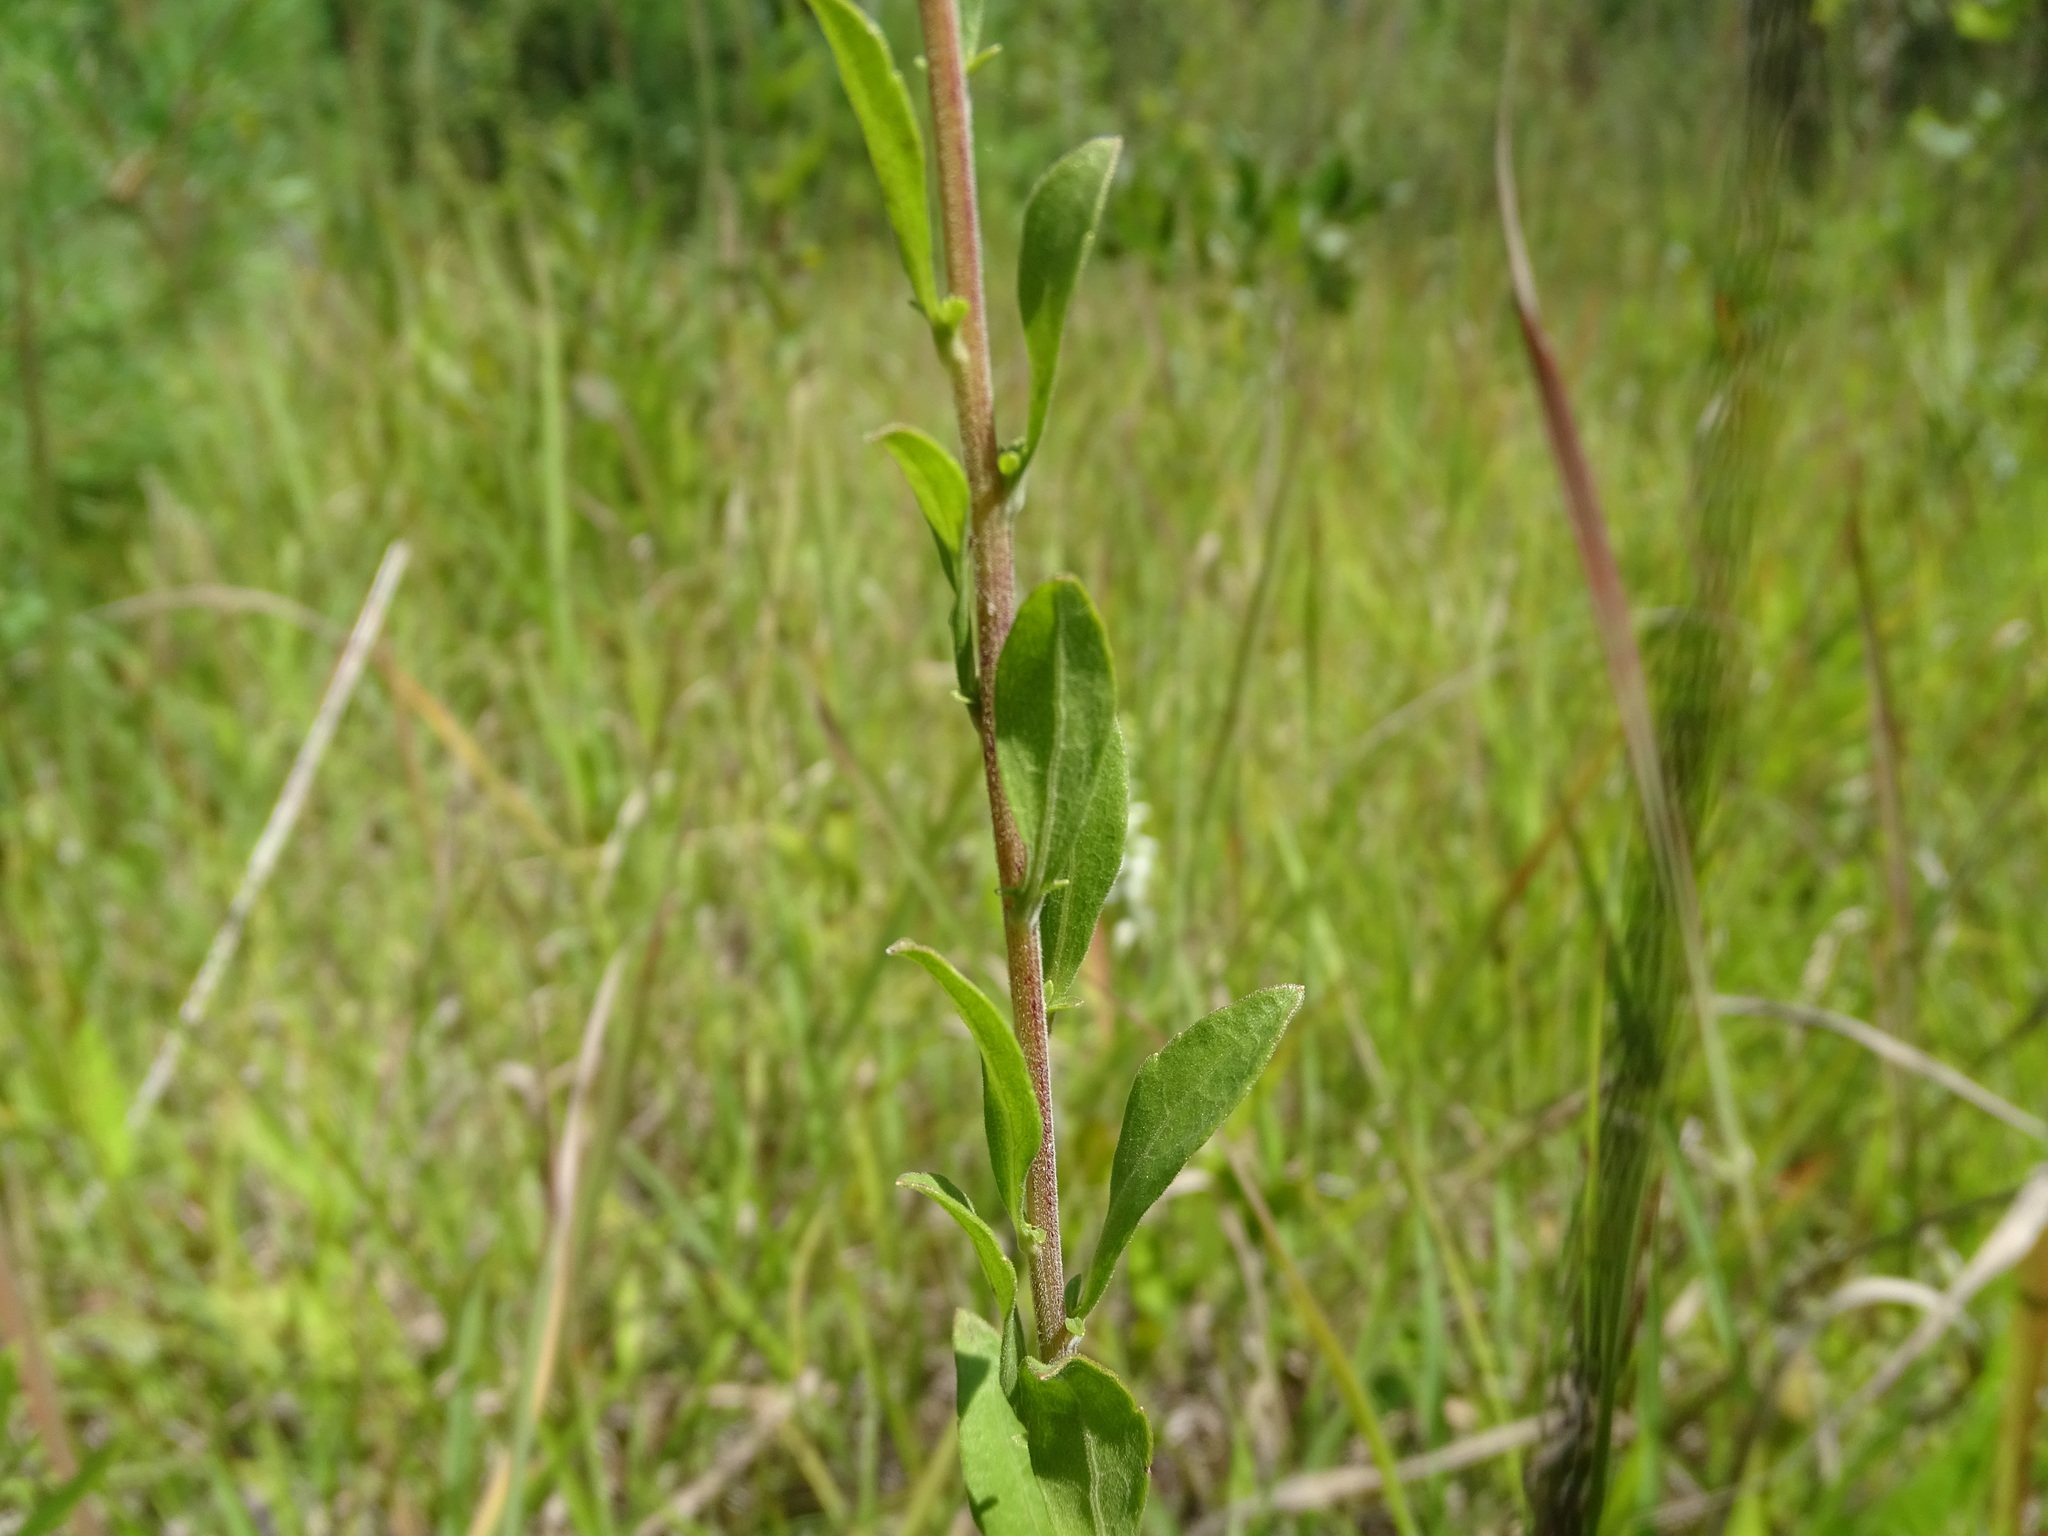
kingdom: Plantae
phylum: Tracheophyta
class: Magnoliopsida
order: Asterales
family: Asteraceae
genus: Solidago
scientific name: Solidago nemoralis
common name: Grey goldenrod
